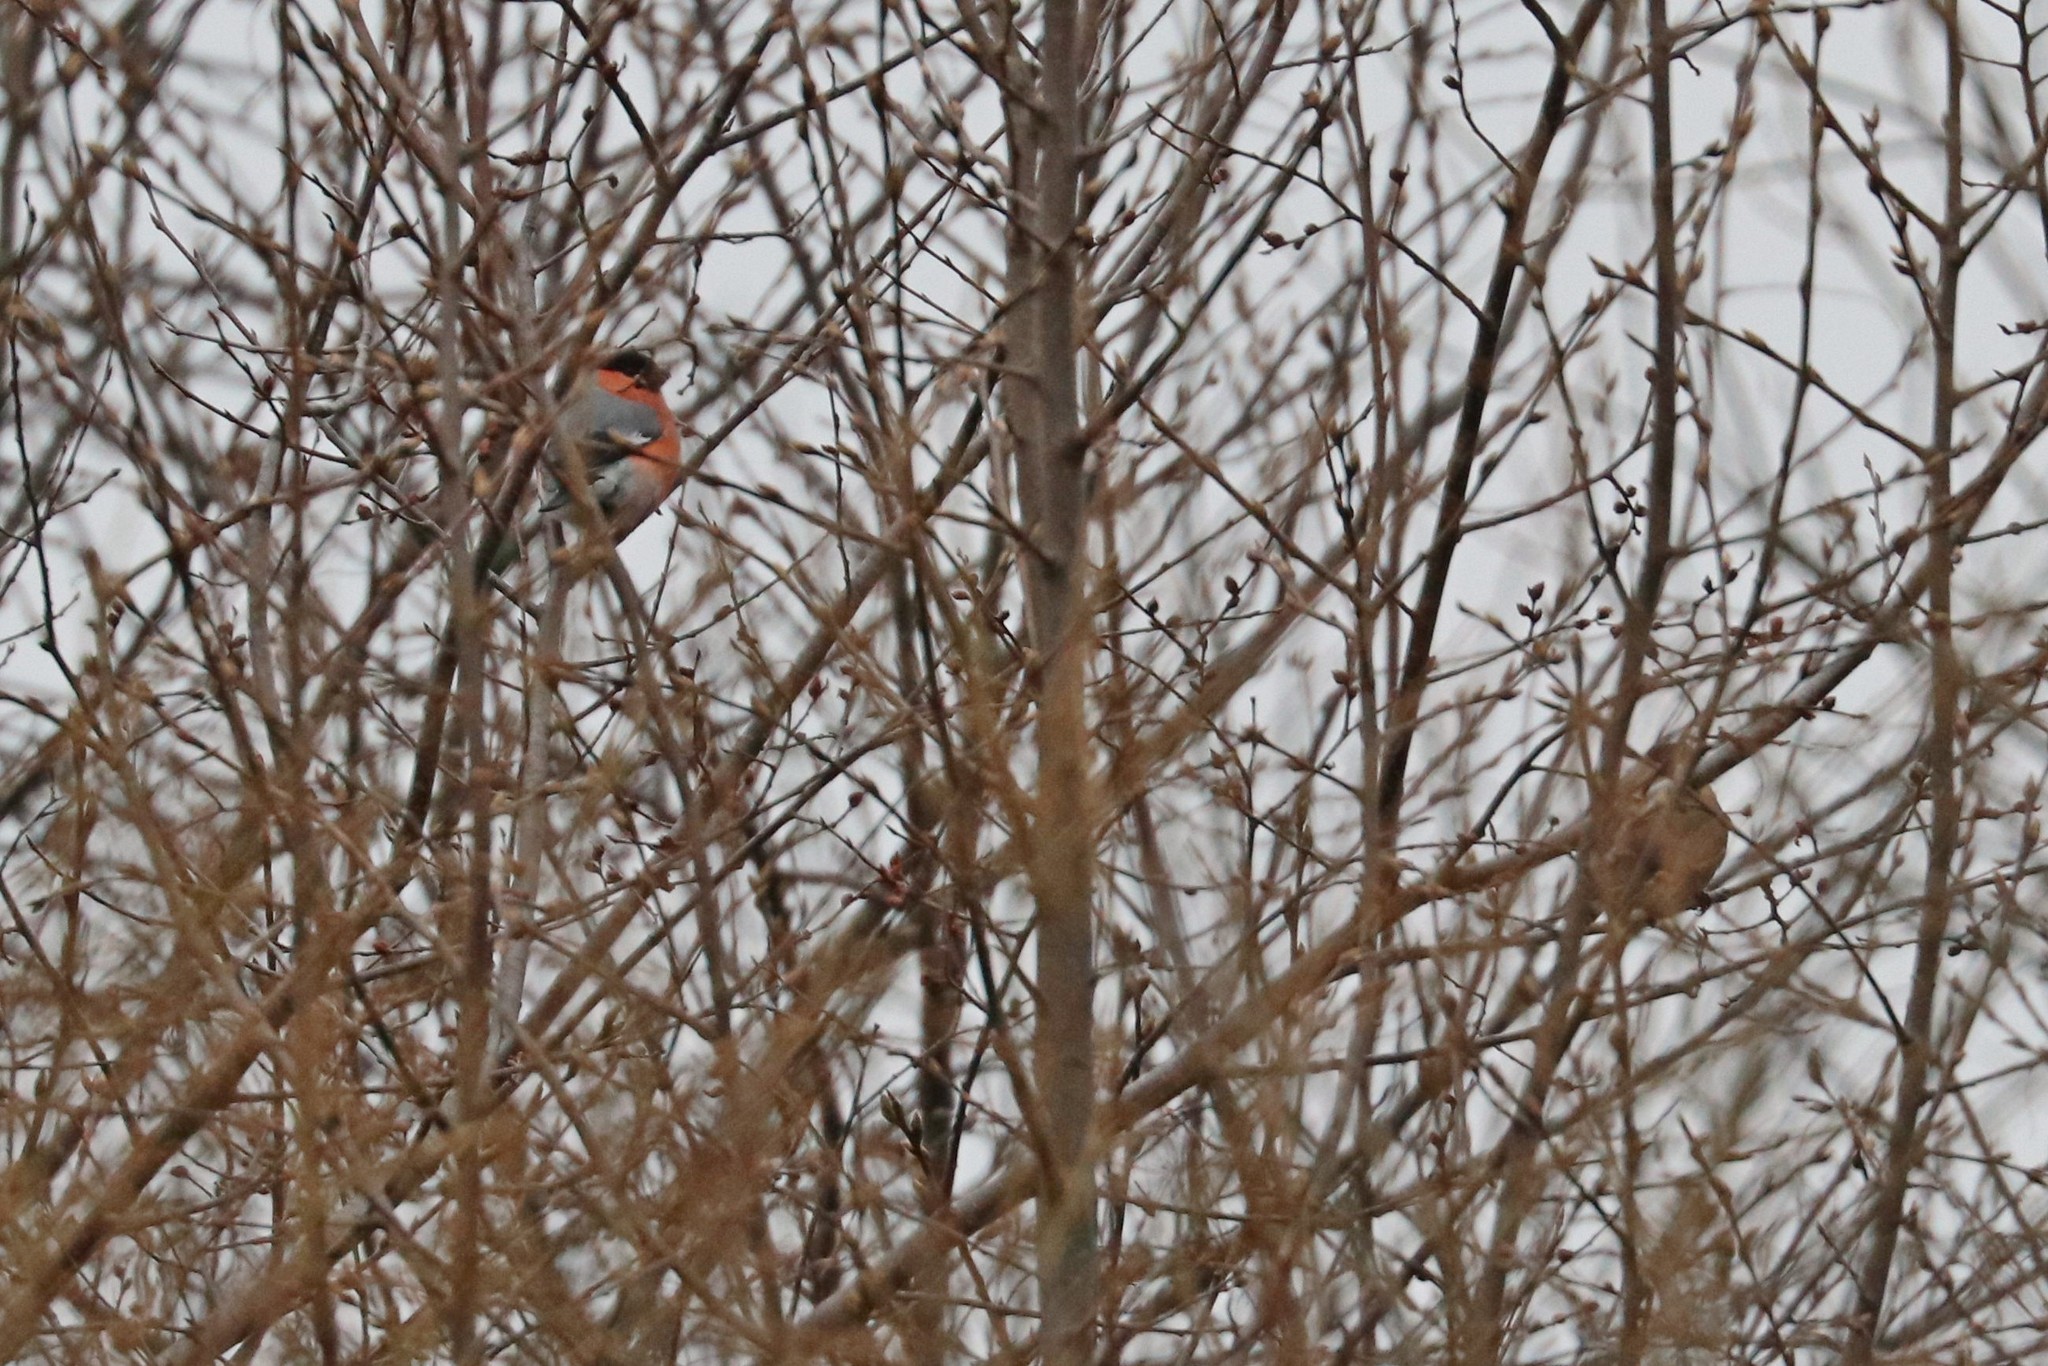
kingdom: Animalia
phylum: Chordata
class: Aves
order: Passeriformes
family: Fringillidae
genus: Pyrrhula
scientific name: Pyrrhula pyrrhula
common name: Eurasian bullfinch
